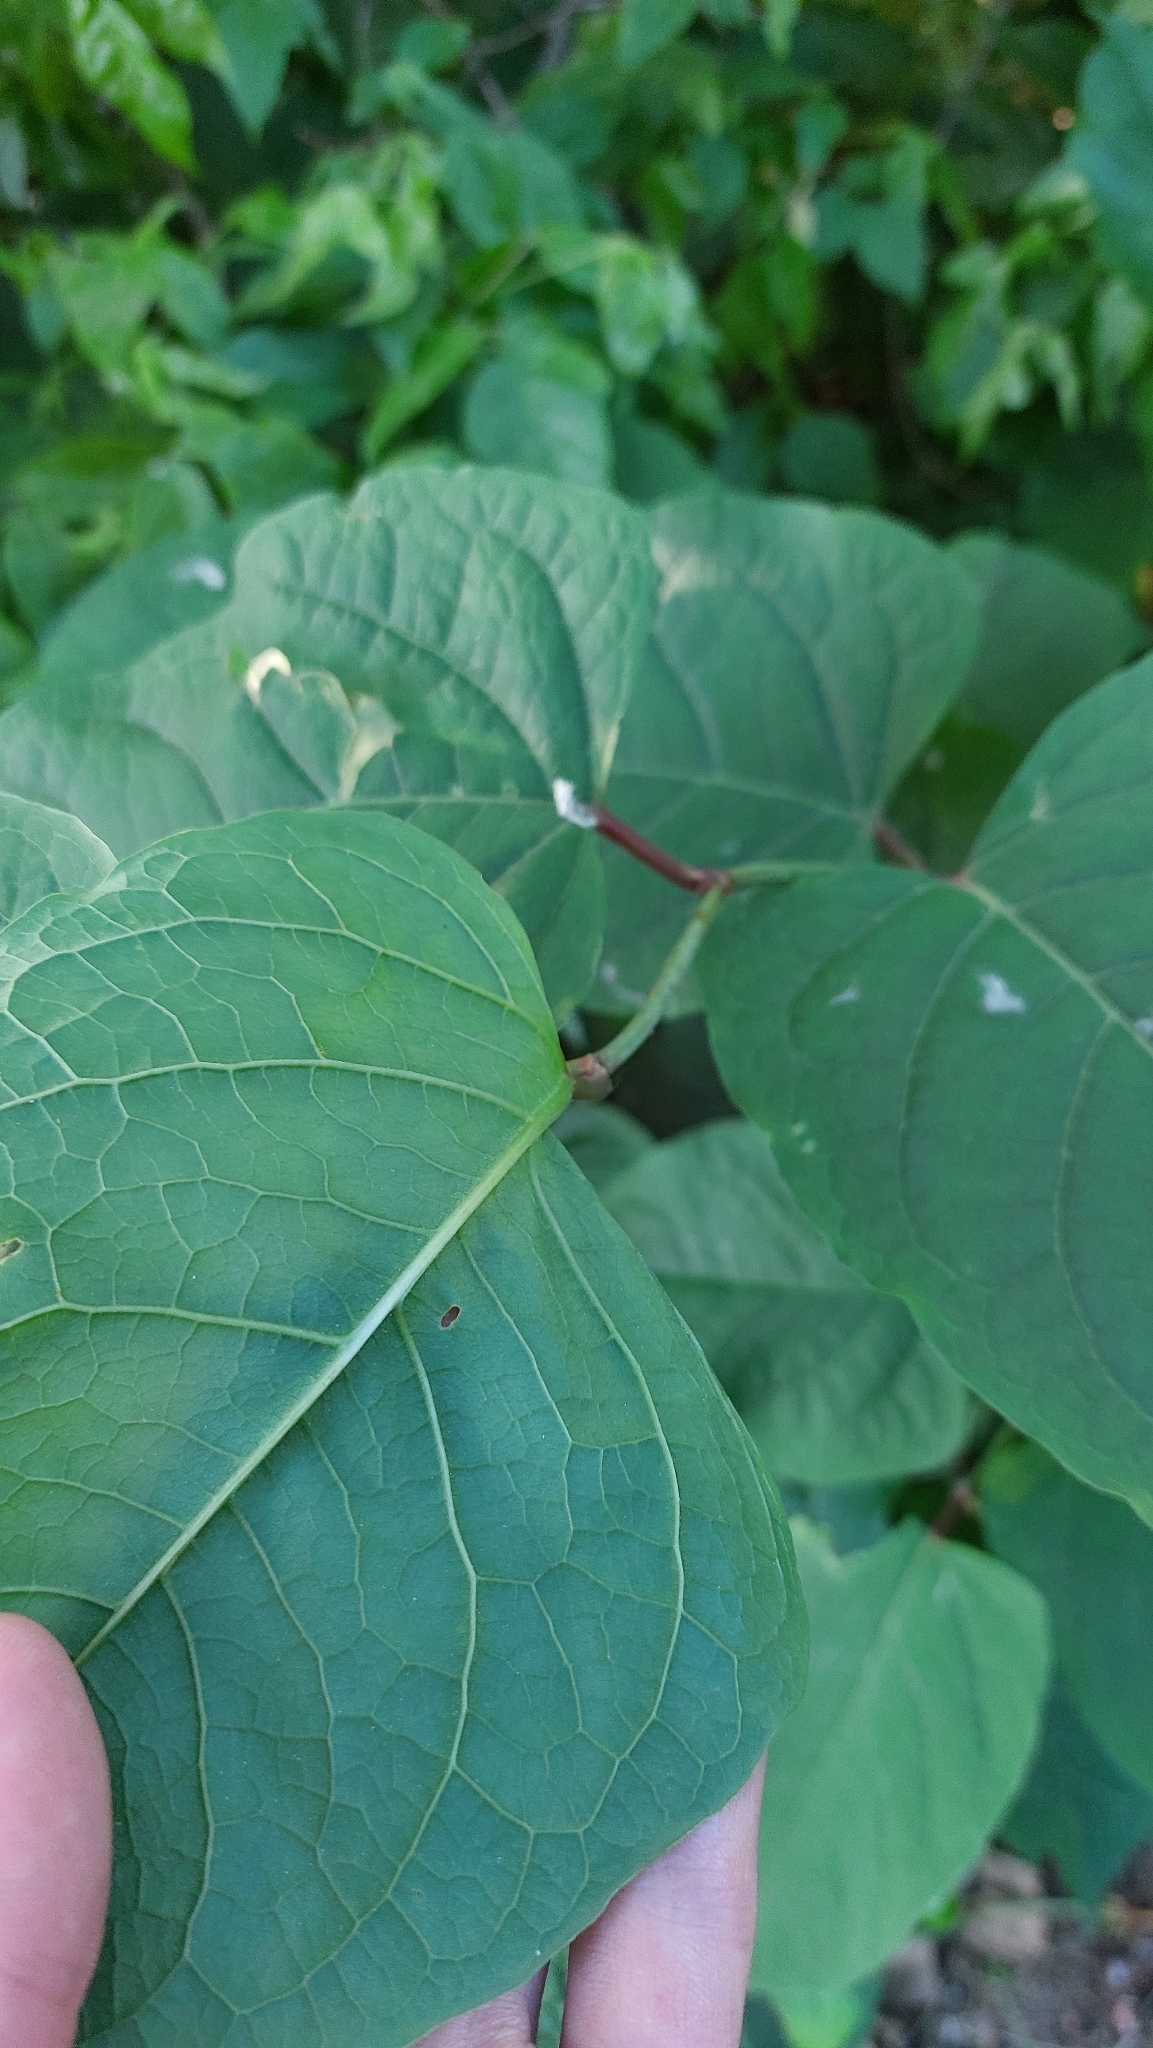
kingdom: Plantae
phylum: Tracheophyta
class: Magnoliopsida
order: Caryophyllales
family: Polygonaceae
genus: Reynoutria
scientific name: Reynoutria japonica
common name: Japanese knotweed
